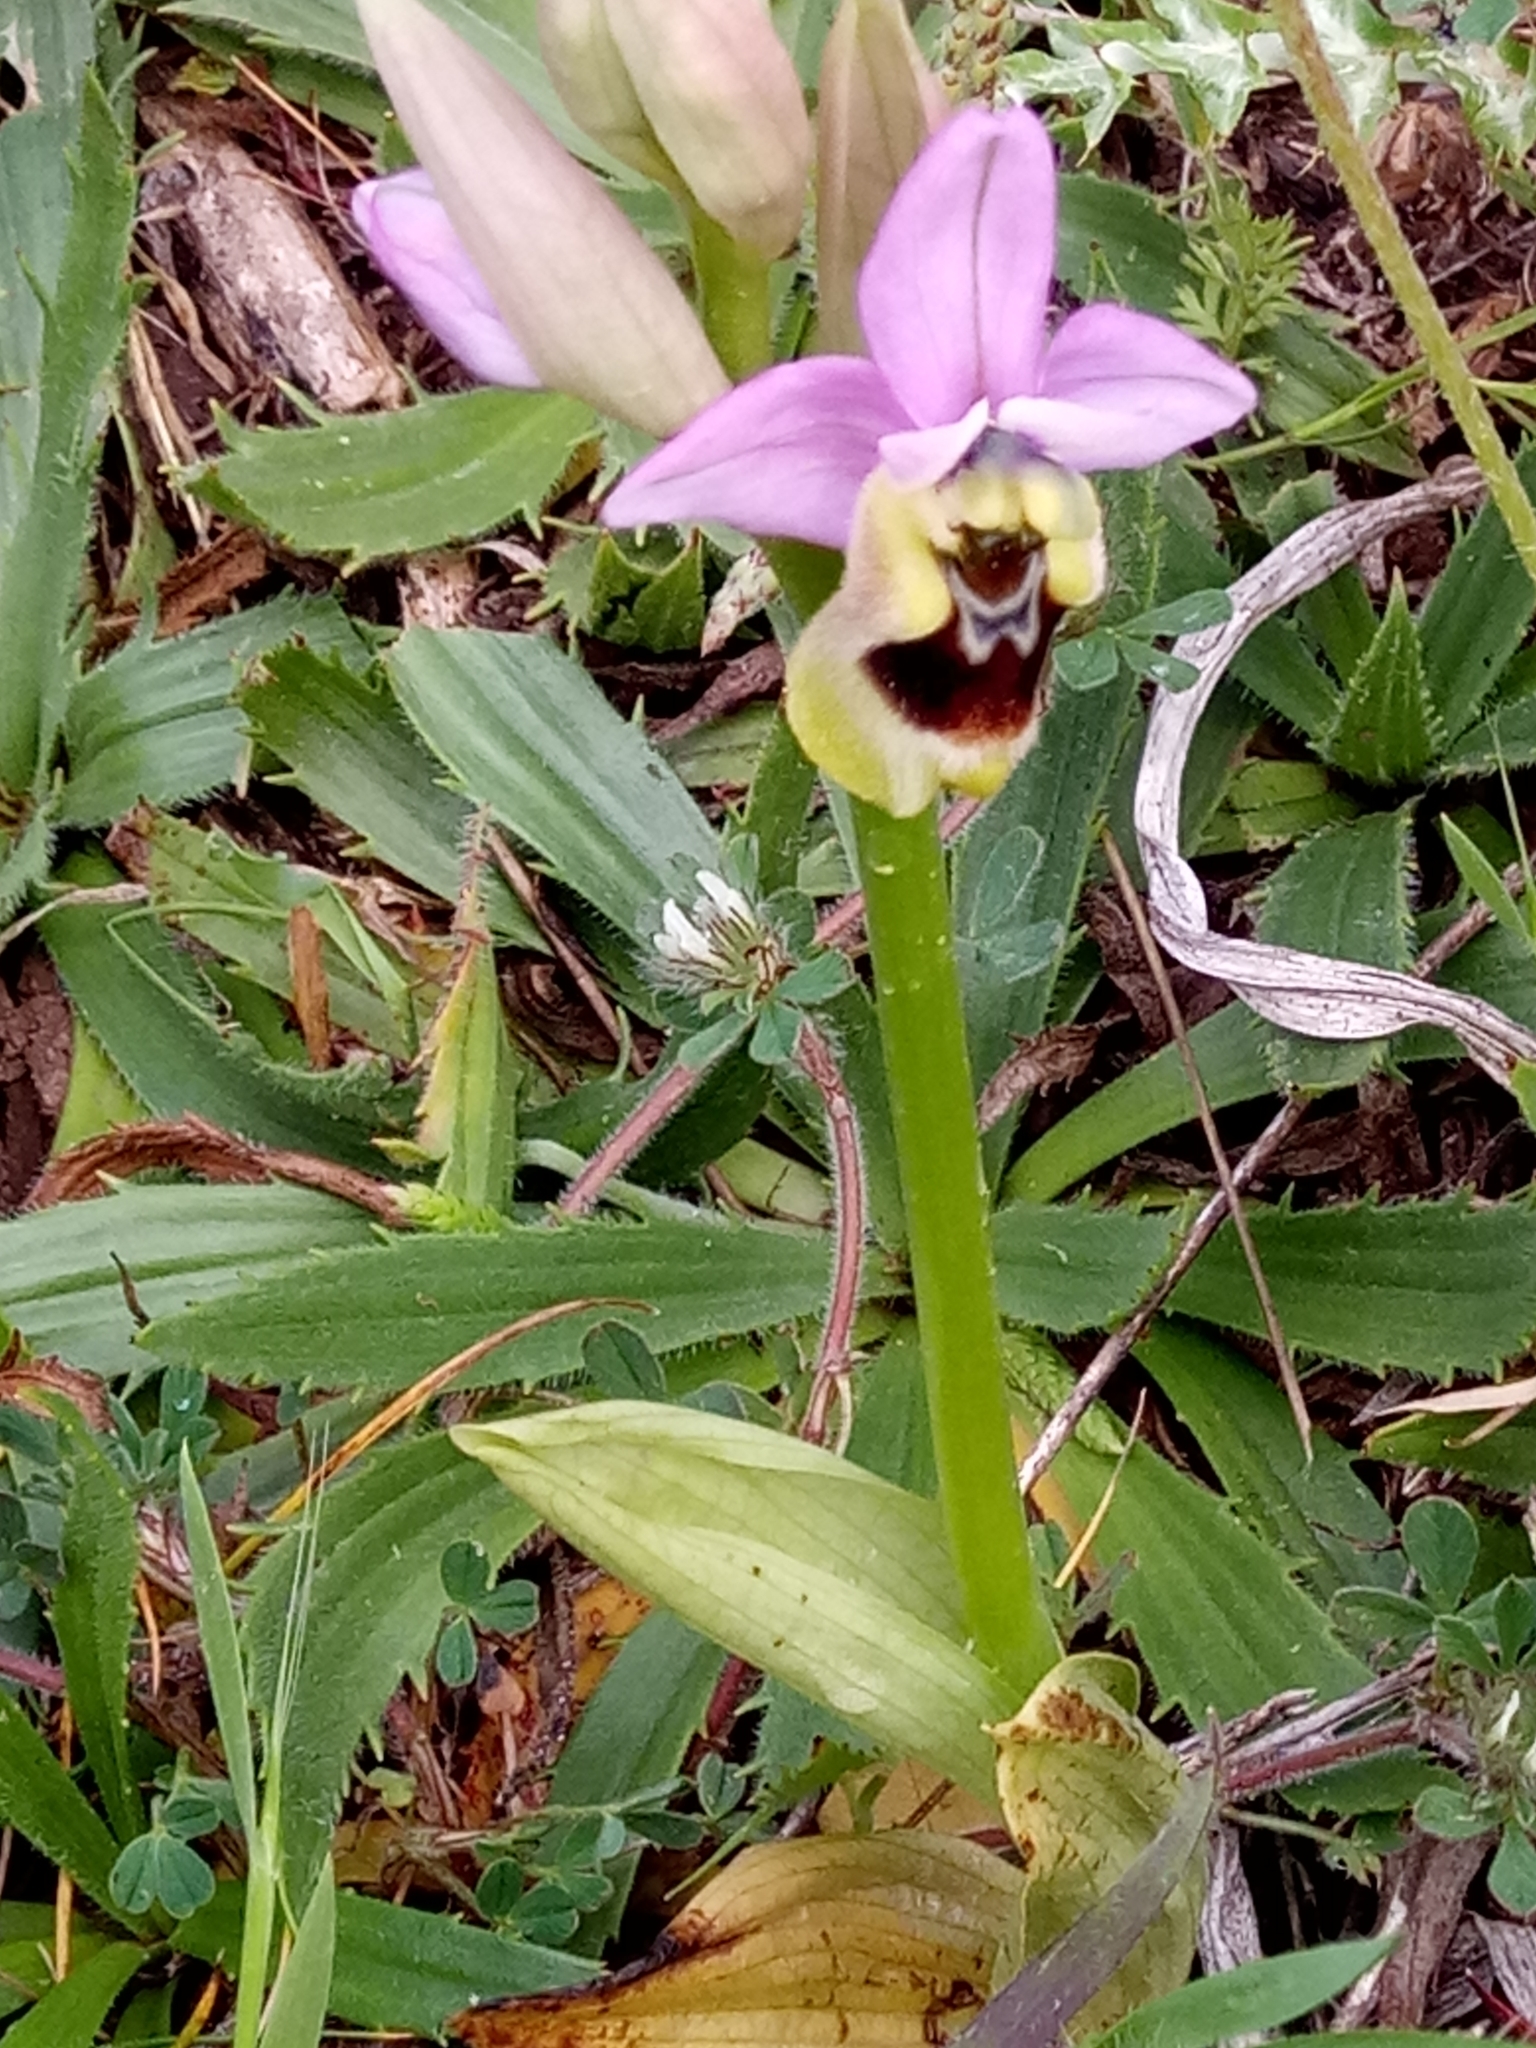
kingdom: Plantae
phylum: Tracheophyta
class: Liliopsida
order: Asparagales
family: Orchidaceae
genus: Ophrys
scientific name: Ophrys tenthredinifera
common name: Sawfly orchid
